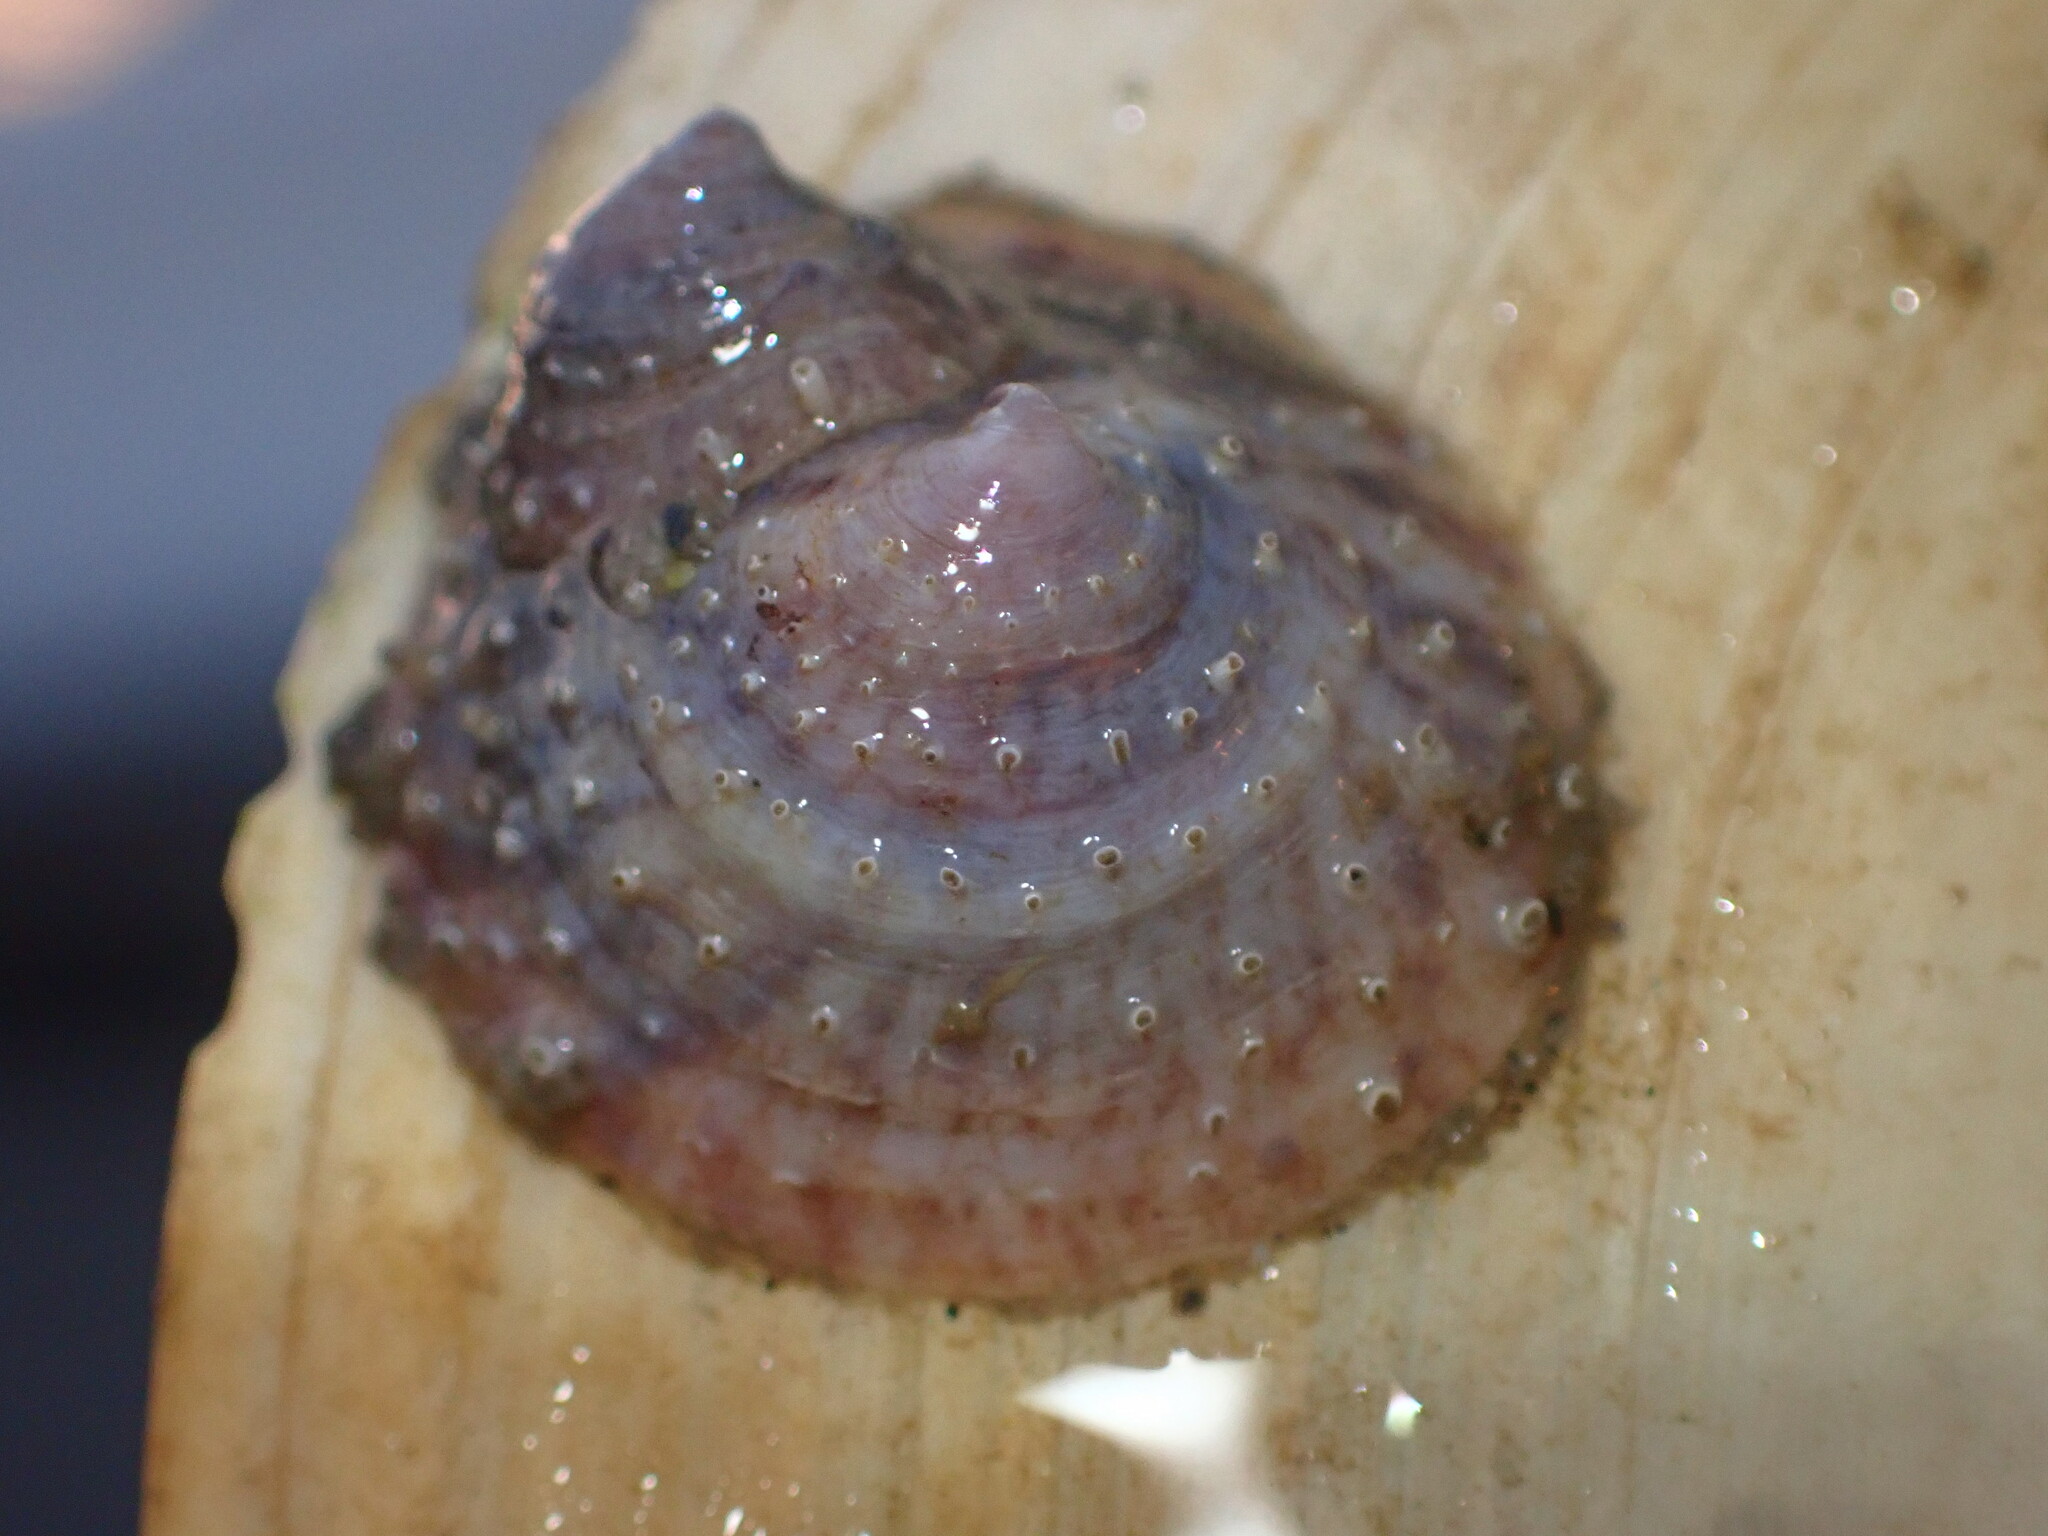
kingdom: Animalia
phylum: Mollusca
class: Gastropoda
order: Littorinimorpha
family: Calyptraeidae
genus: Crucibulum
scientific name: Crucibulum spinosum
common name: Spiny cup-and-saucer
